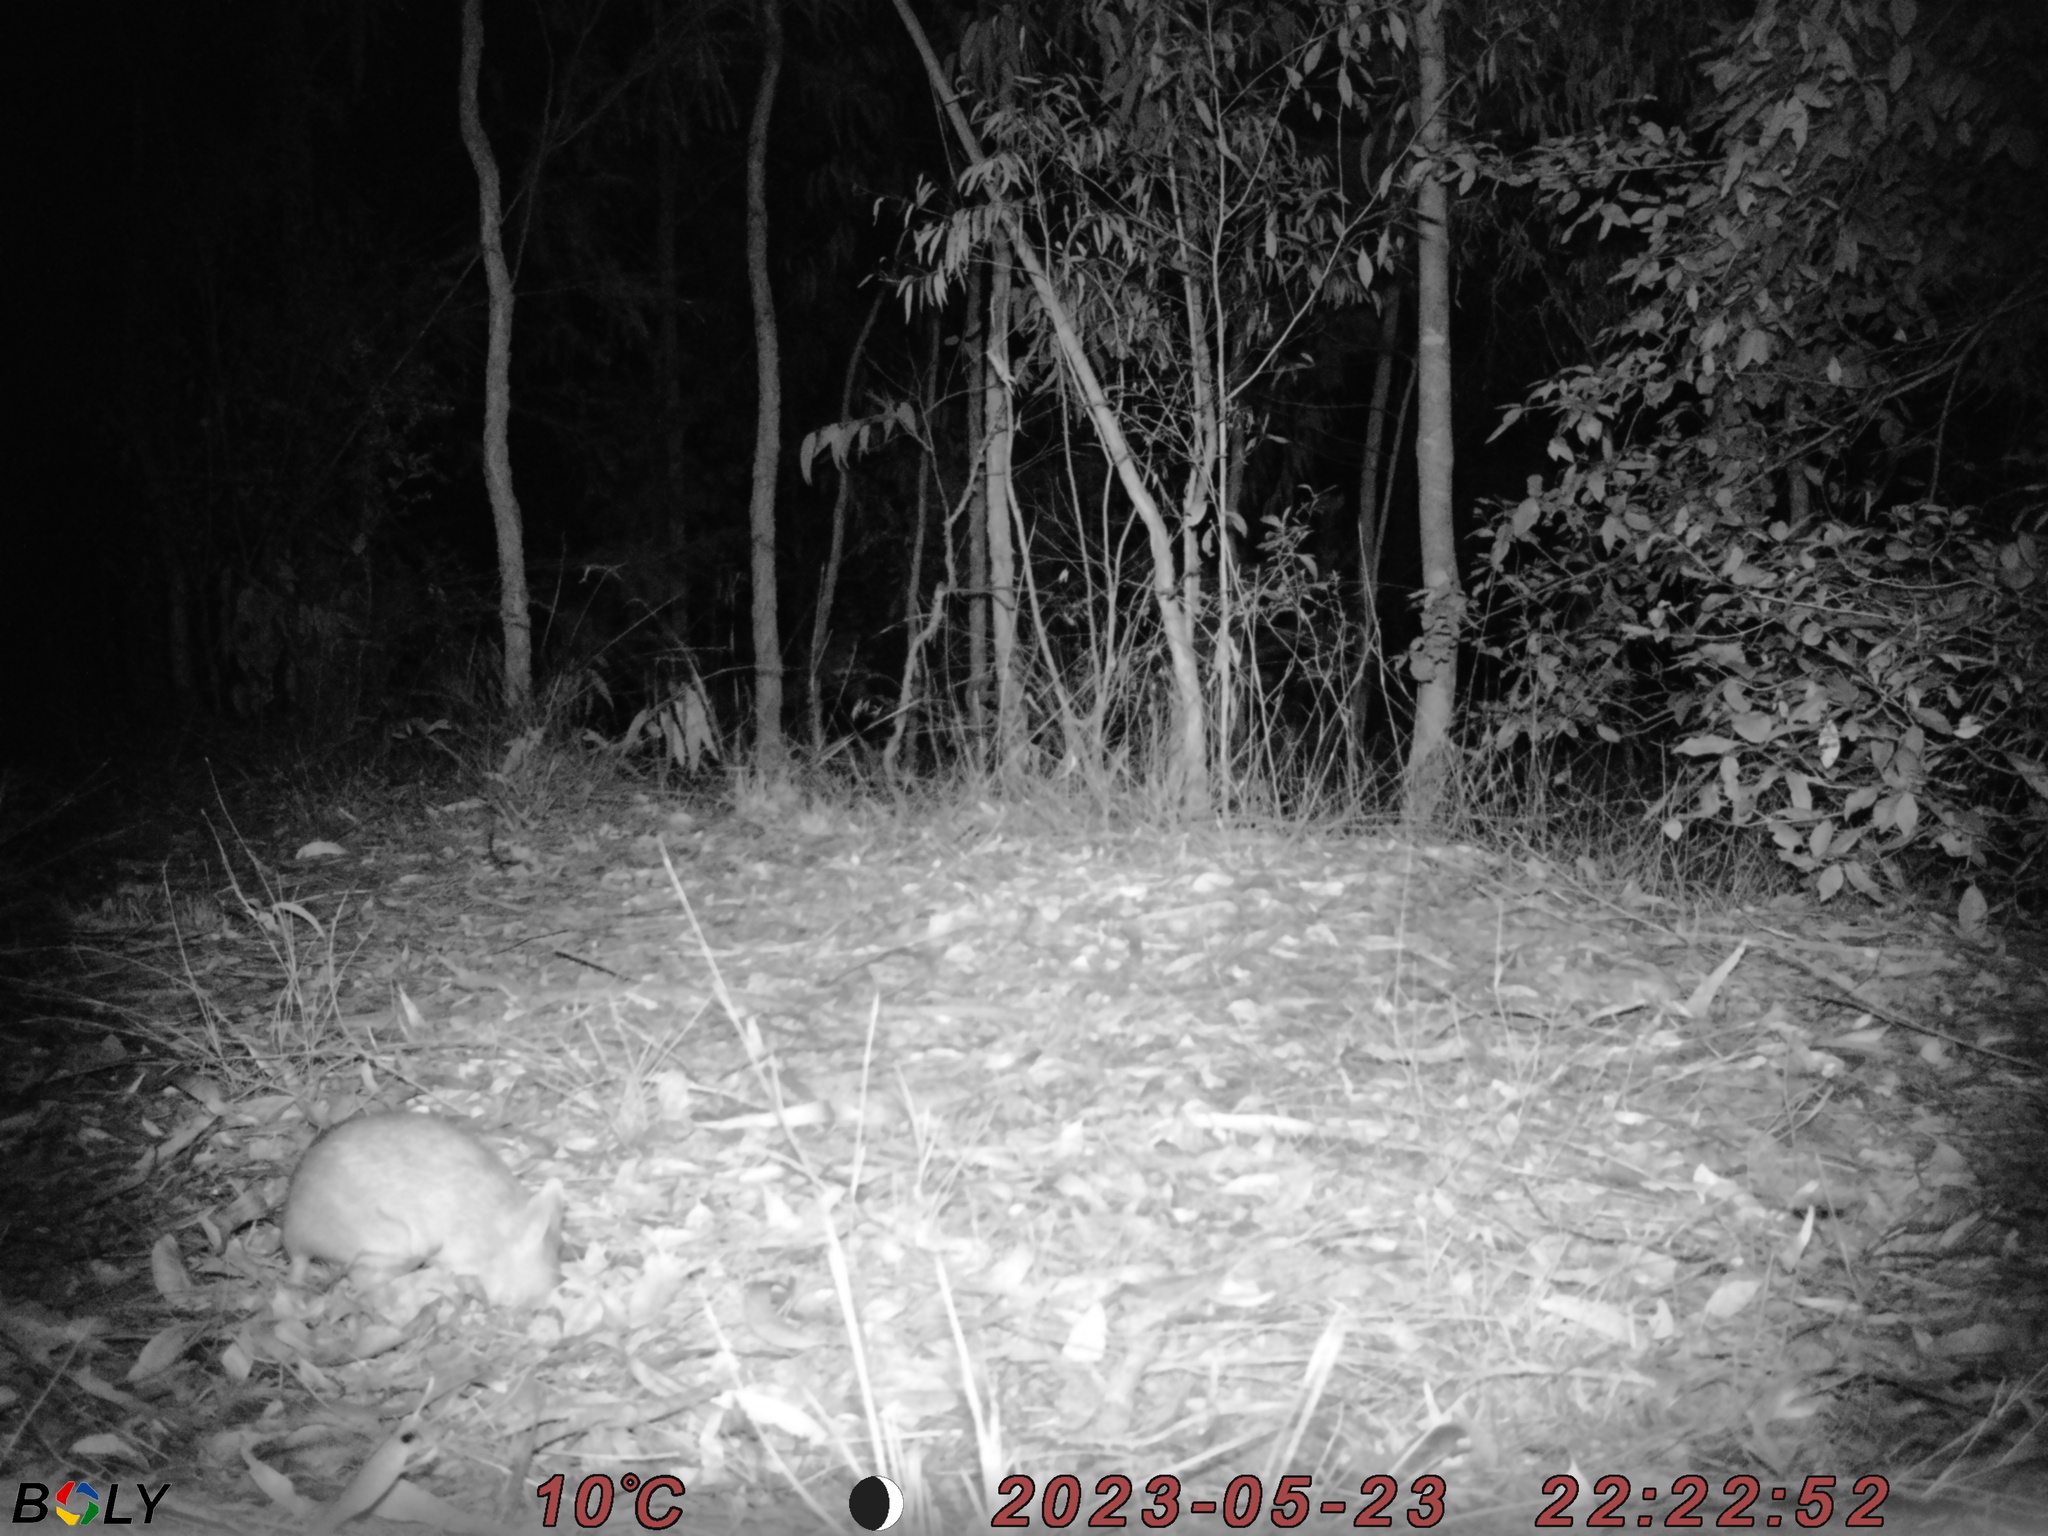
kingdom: Animalia
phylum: Chordata
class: Mammalia
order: Peramelemorphia
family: Peramelidae
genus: Perameles
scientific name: Perameles nasuta
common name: Long-nosed bandicoot
